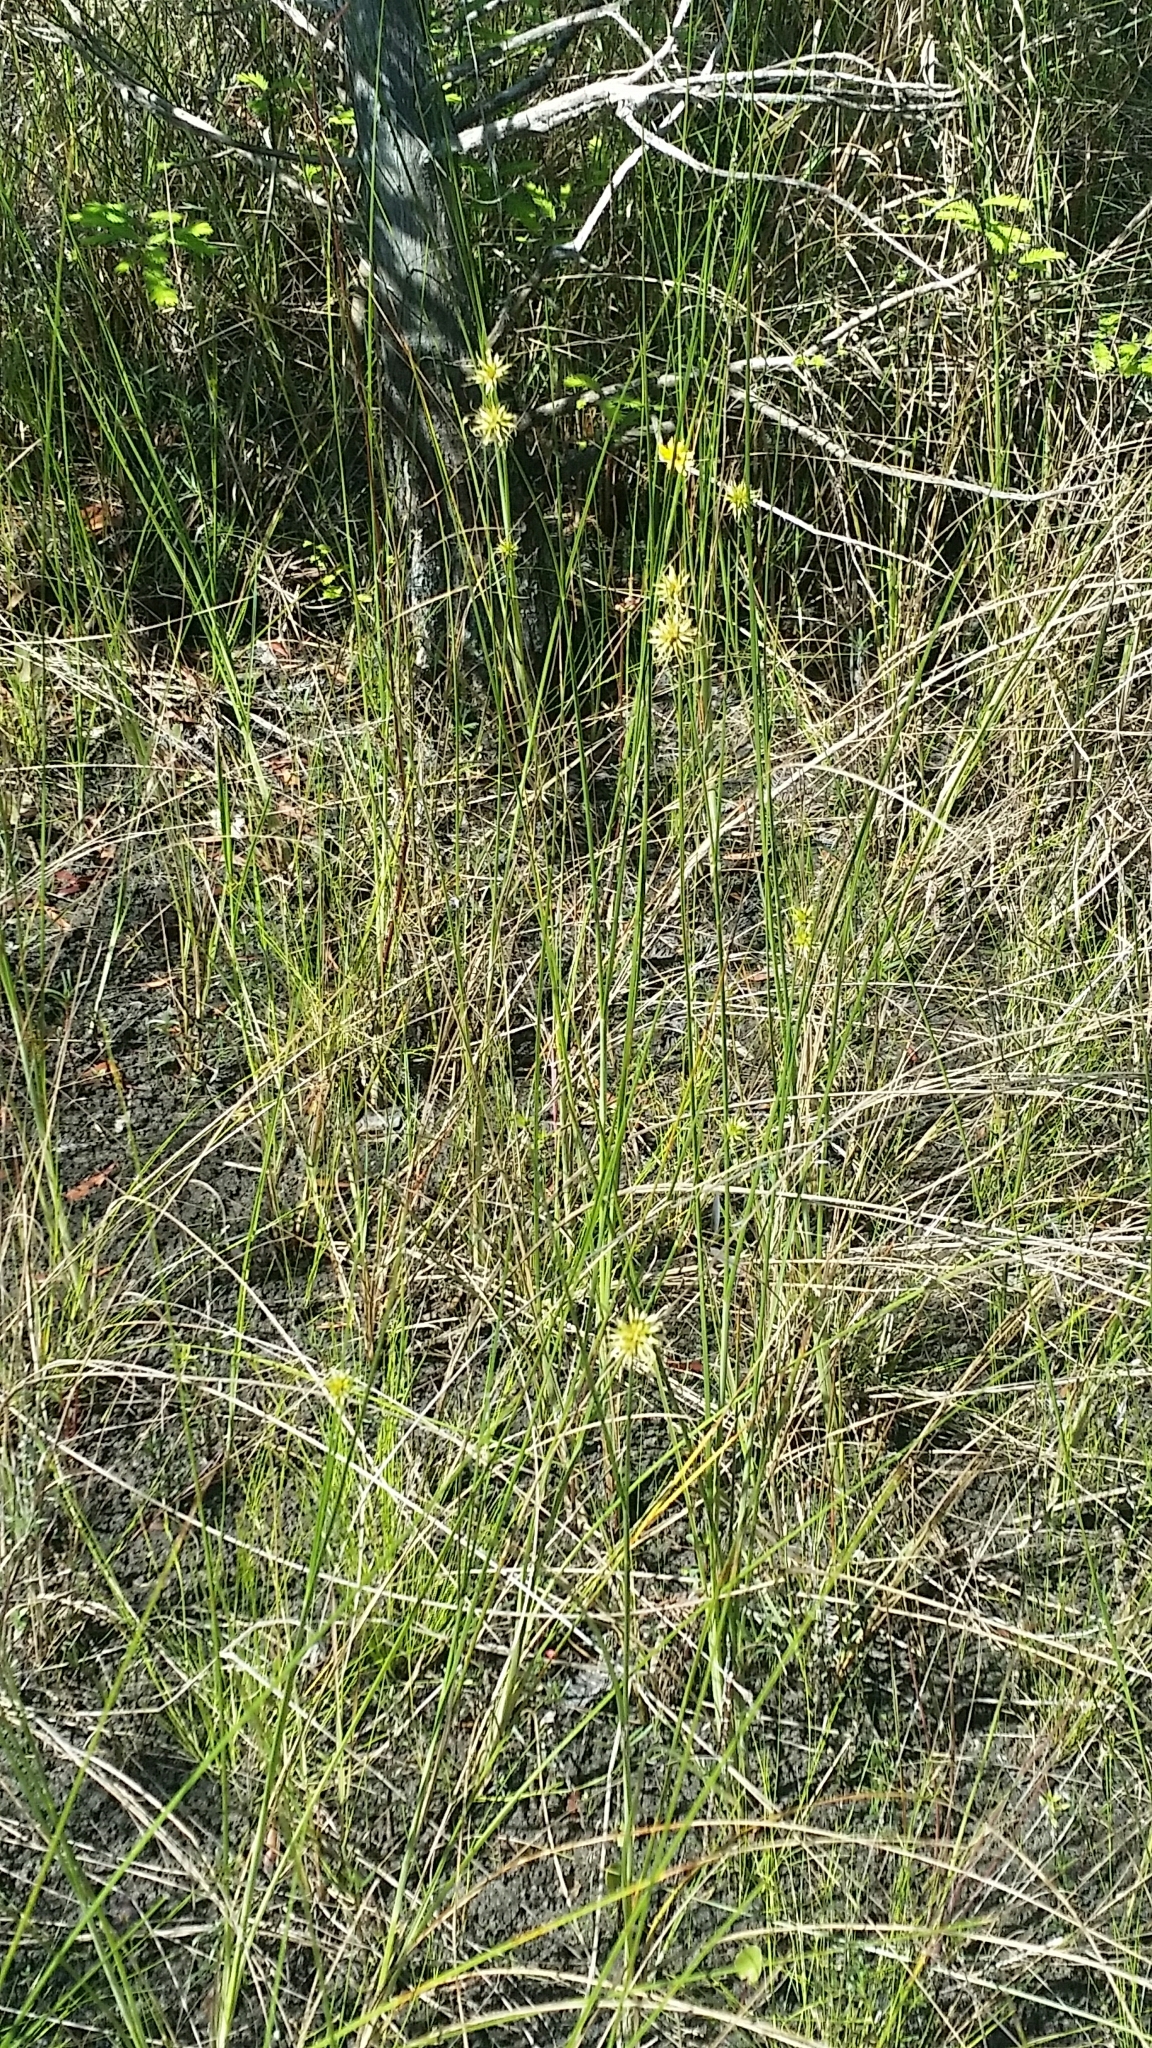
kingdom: Plantae
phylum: Tracheophyta
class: Liliopsida
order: Poales
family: Cyperaceae
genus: Rhynchospora
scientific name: Rhynchospora tracyi
